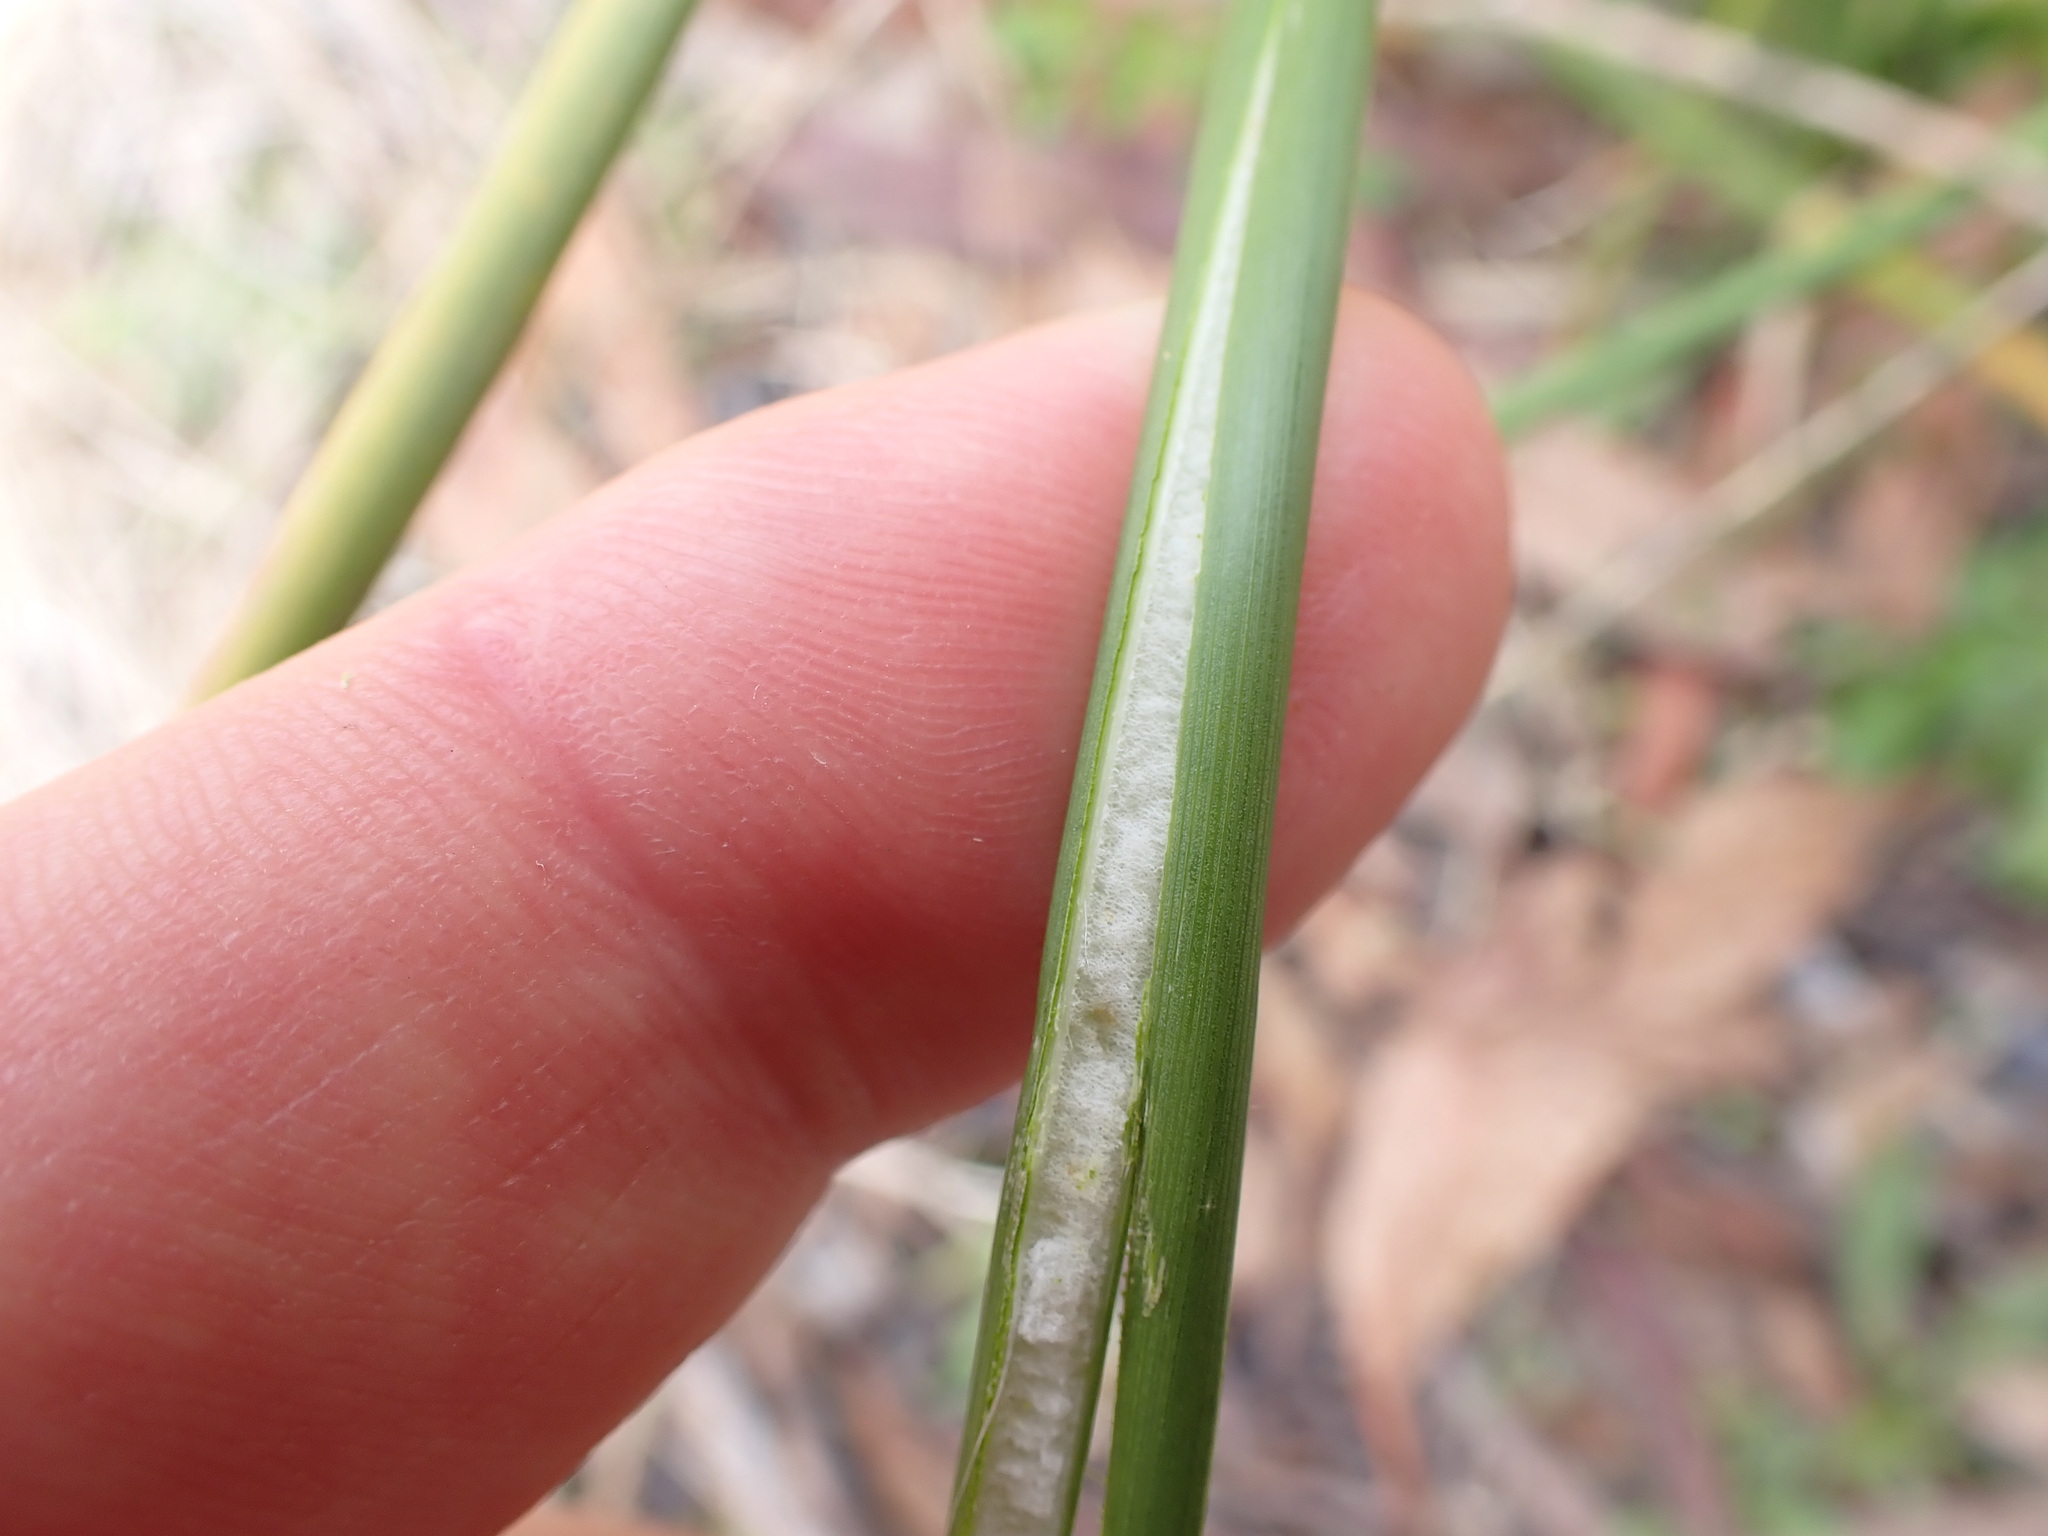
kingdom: Plantae
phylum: Tracheophyta
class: Liliopsida
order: Poales
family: Juncaceae
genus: Juncus
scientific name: Juncus vaginatus
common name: Clustered rush
